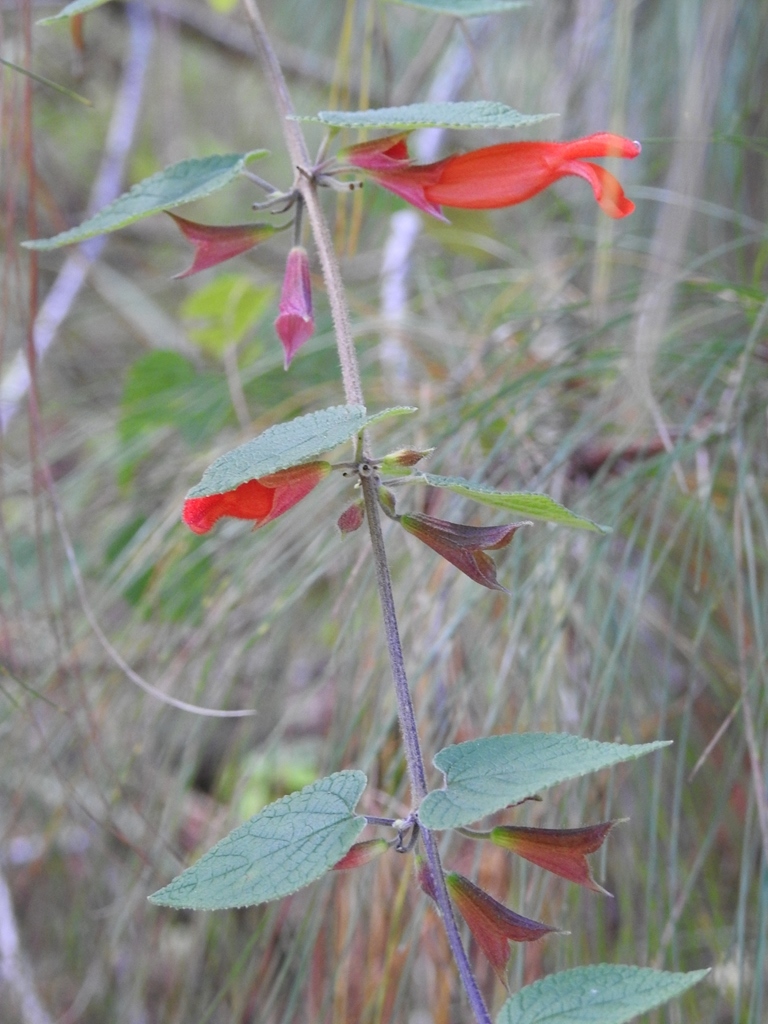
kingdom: Plantae
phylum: Tracheophyta
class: Magnoliopsida
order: Lamiales
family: Lamiaceae
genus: Salvia
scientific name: Salvia disjuncta
